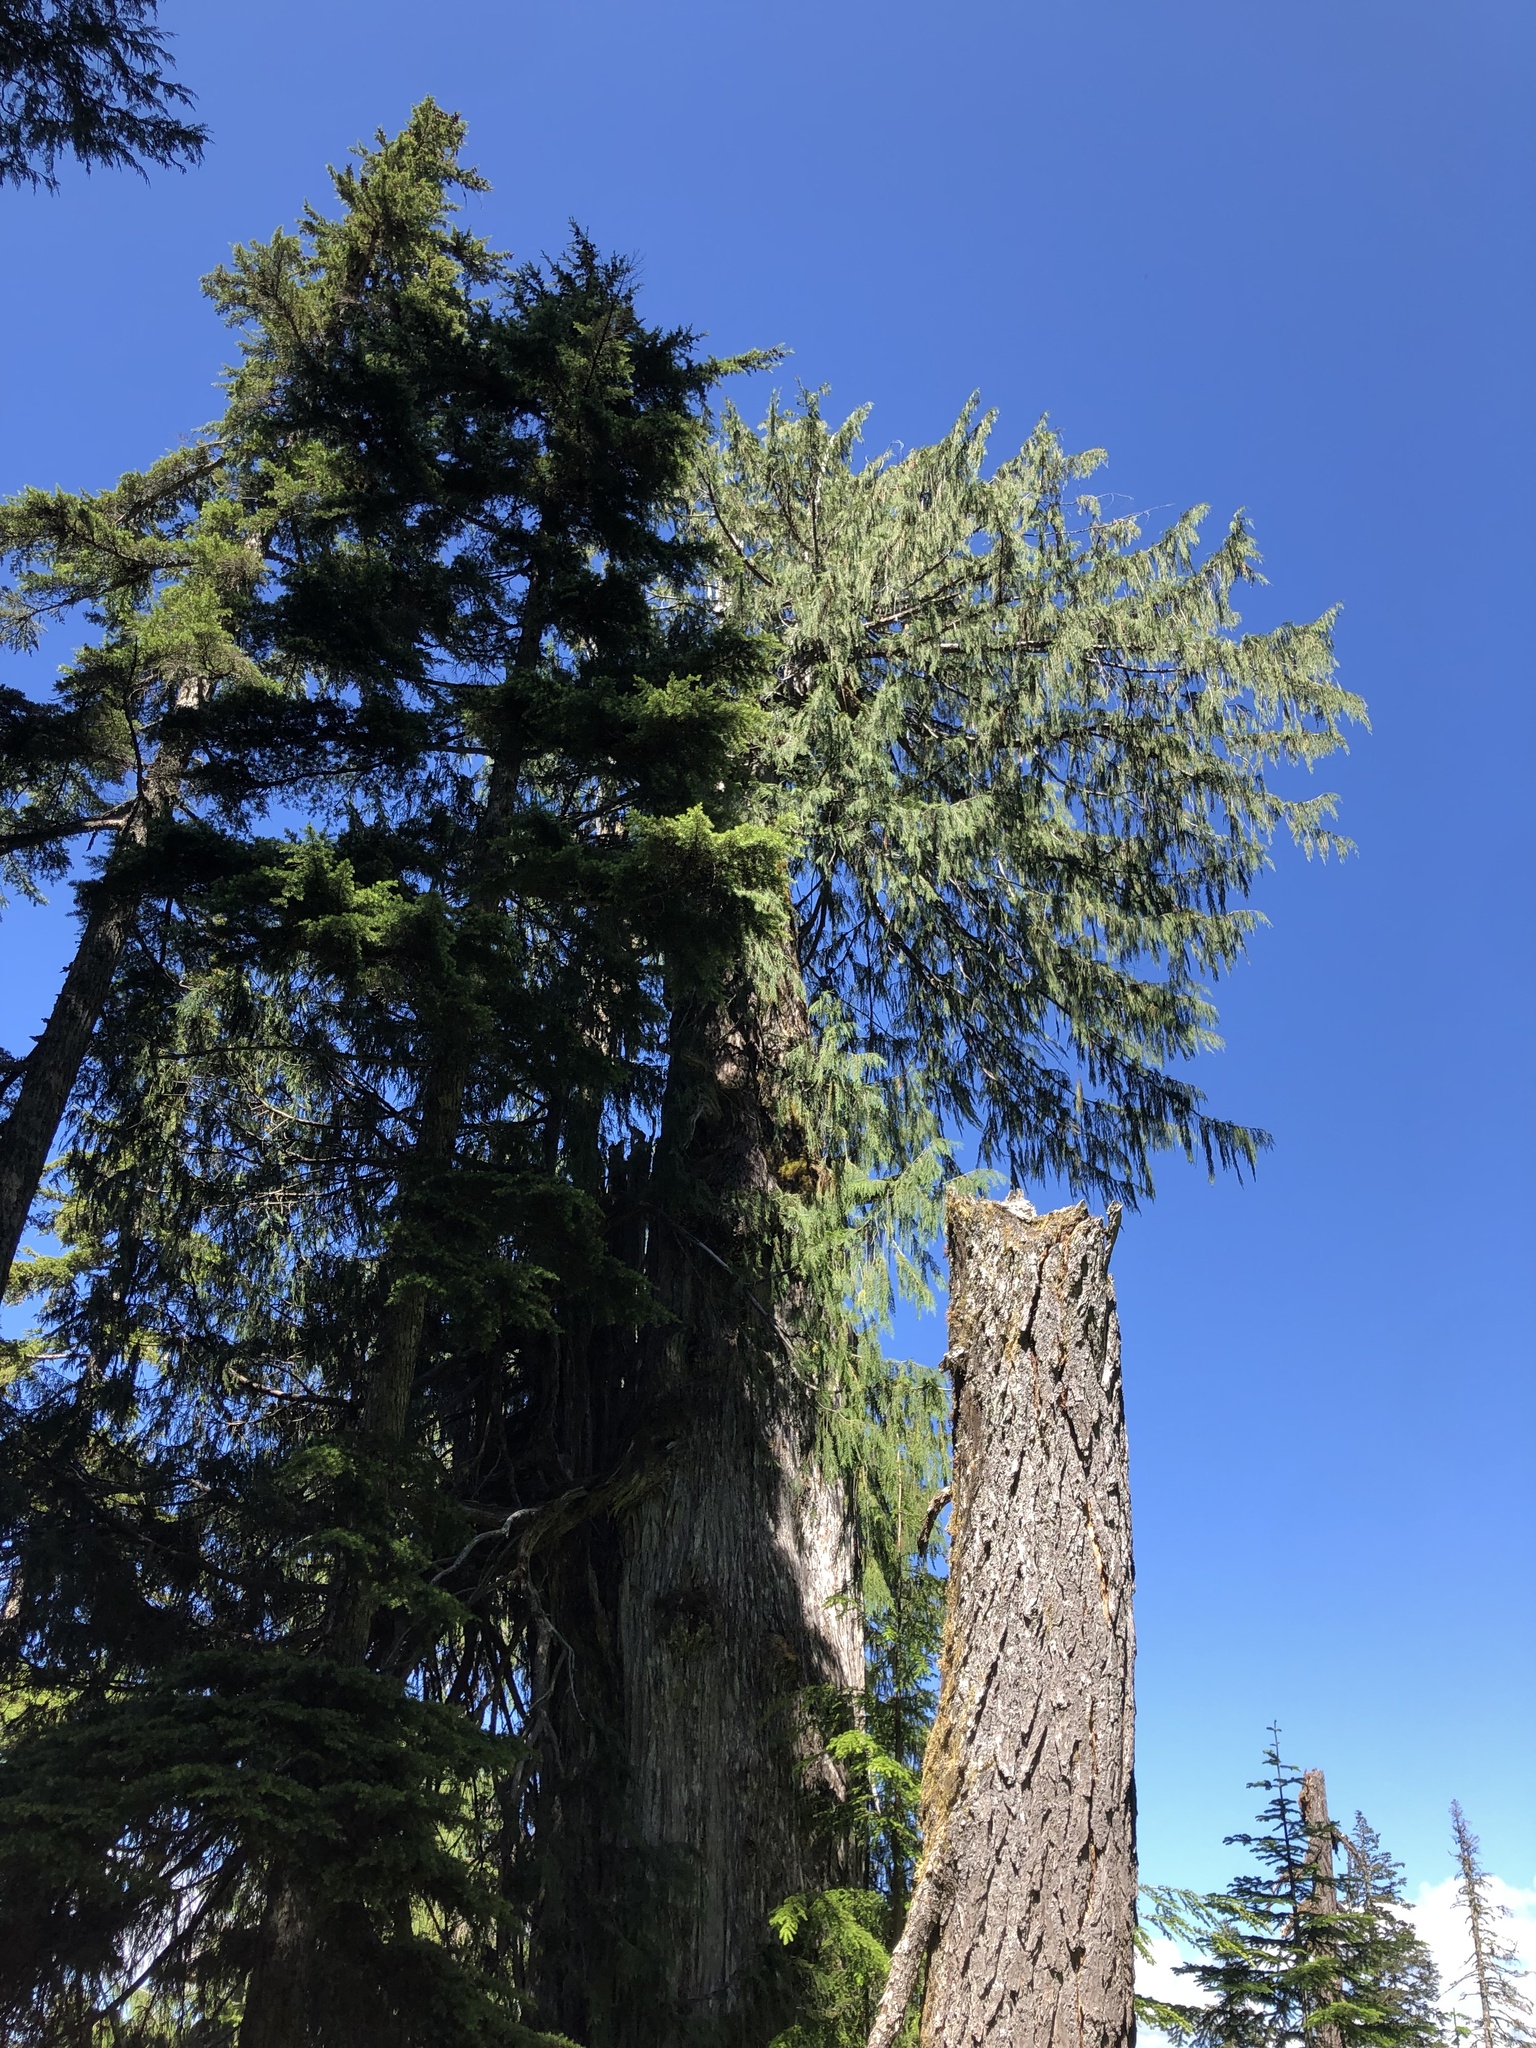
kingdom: Plantae
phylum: Tracheophyta
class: Pinopsida
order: Pinales
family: Cupressaceae
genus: Xanthocyparis
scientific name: Xanthocyparis nootkatensis
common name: Nootka cypress
